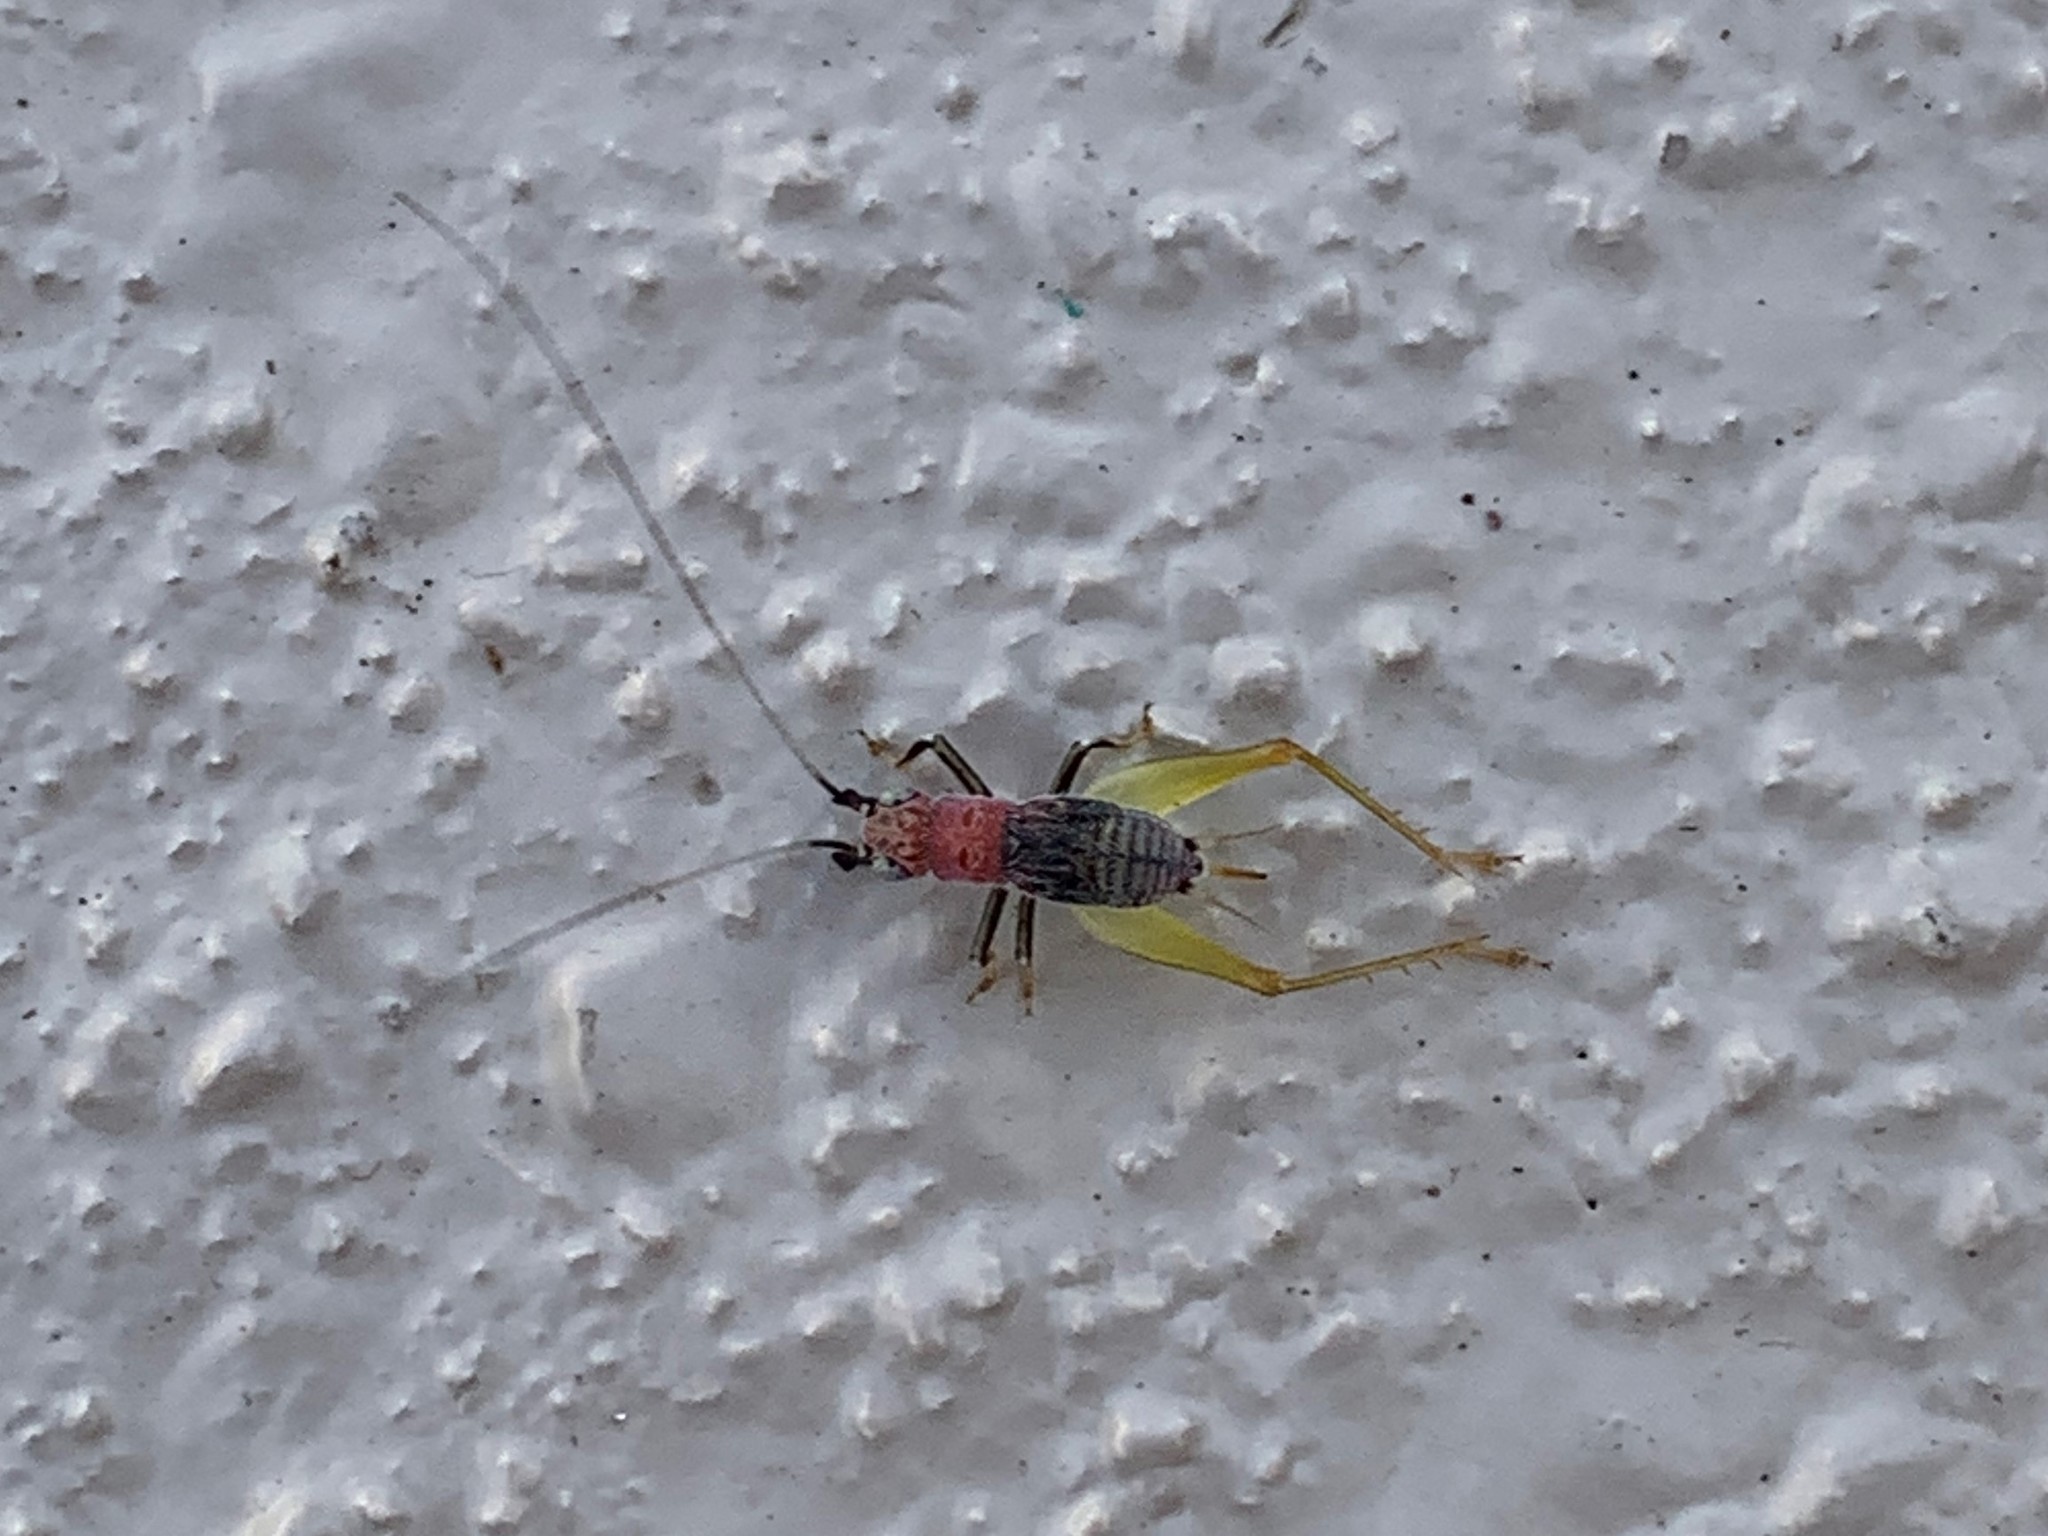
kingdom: Animalia
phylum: Arthropoda
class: Insecta
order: Orthoptera
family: Trigonidiidae
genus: Phyllopalpus
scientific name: Phyllopalpus pulchellus
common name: Handsome trig
